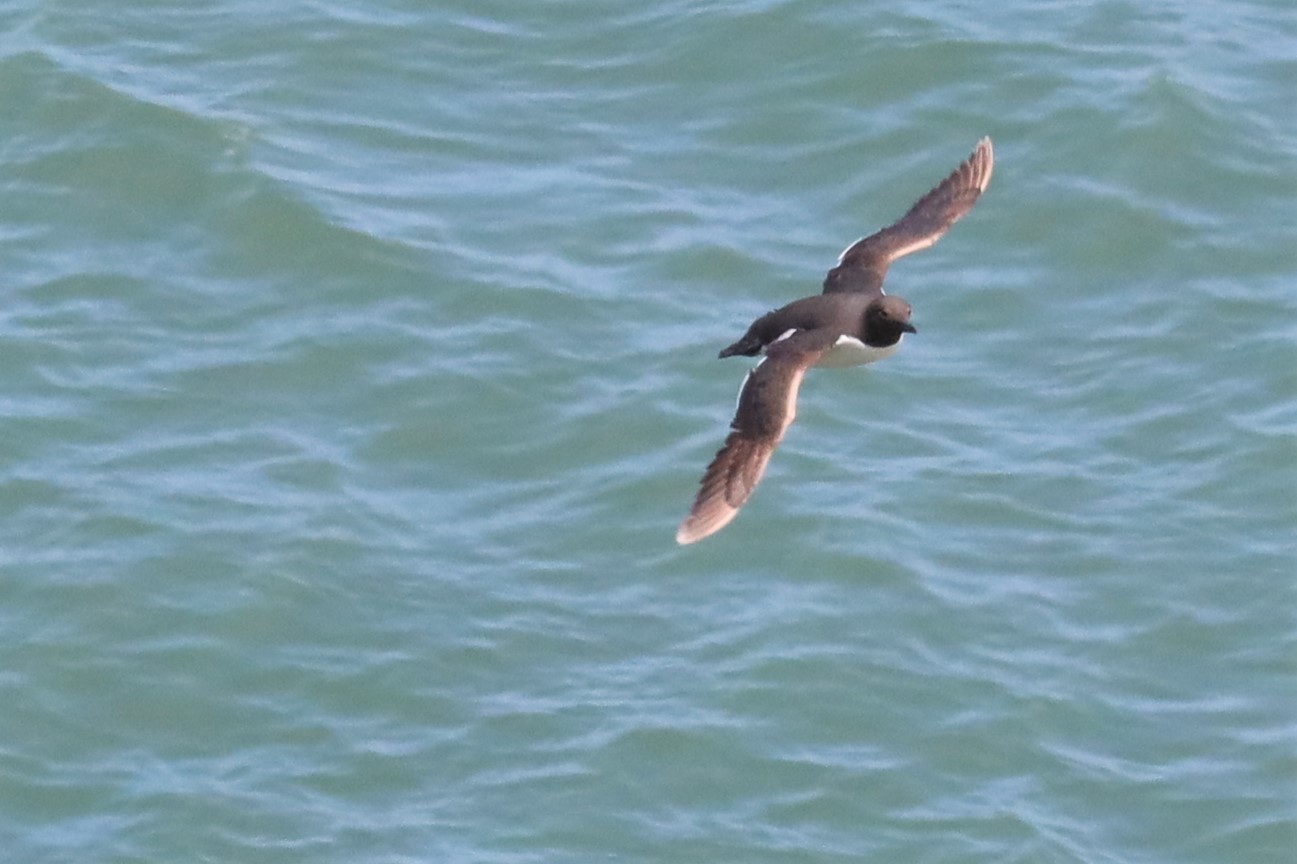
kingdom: Animalia
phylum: Chordata
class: Aves
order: Charadriiformes
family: Alcidae
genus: Uria
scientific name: Uria aalge
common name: Common murre
